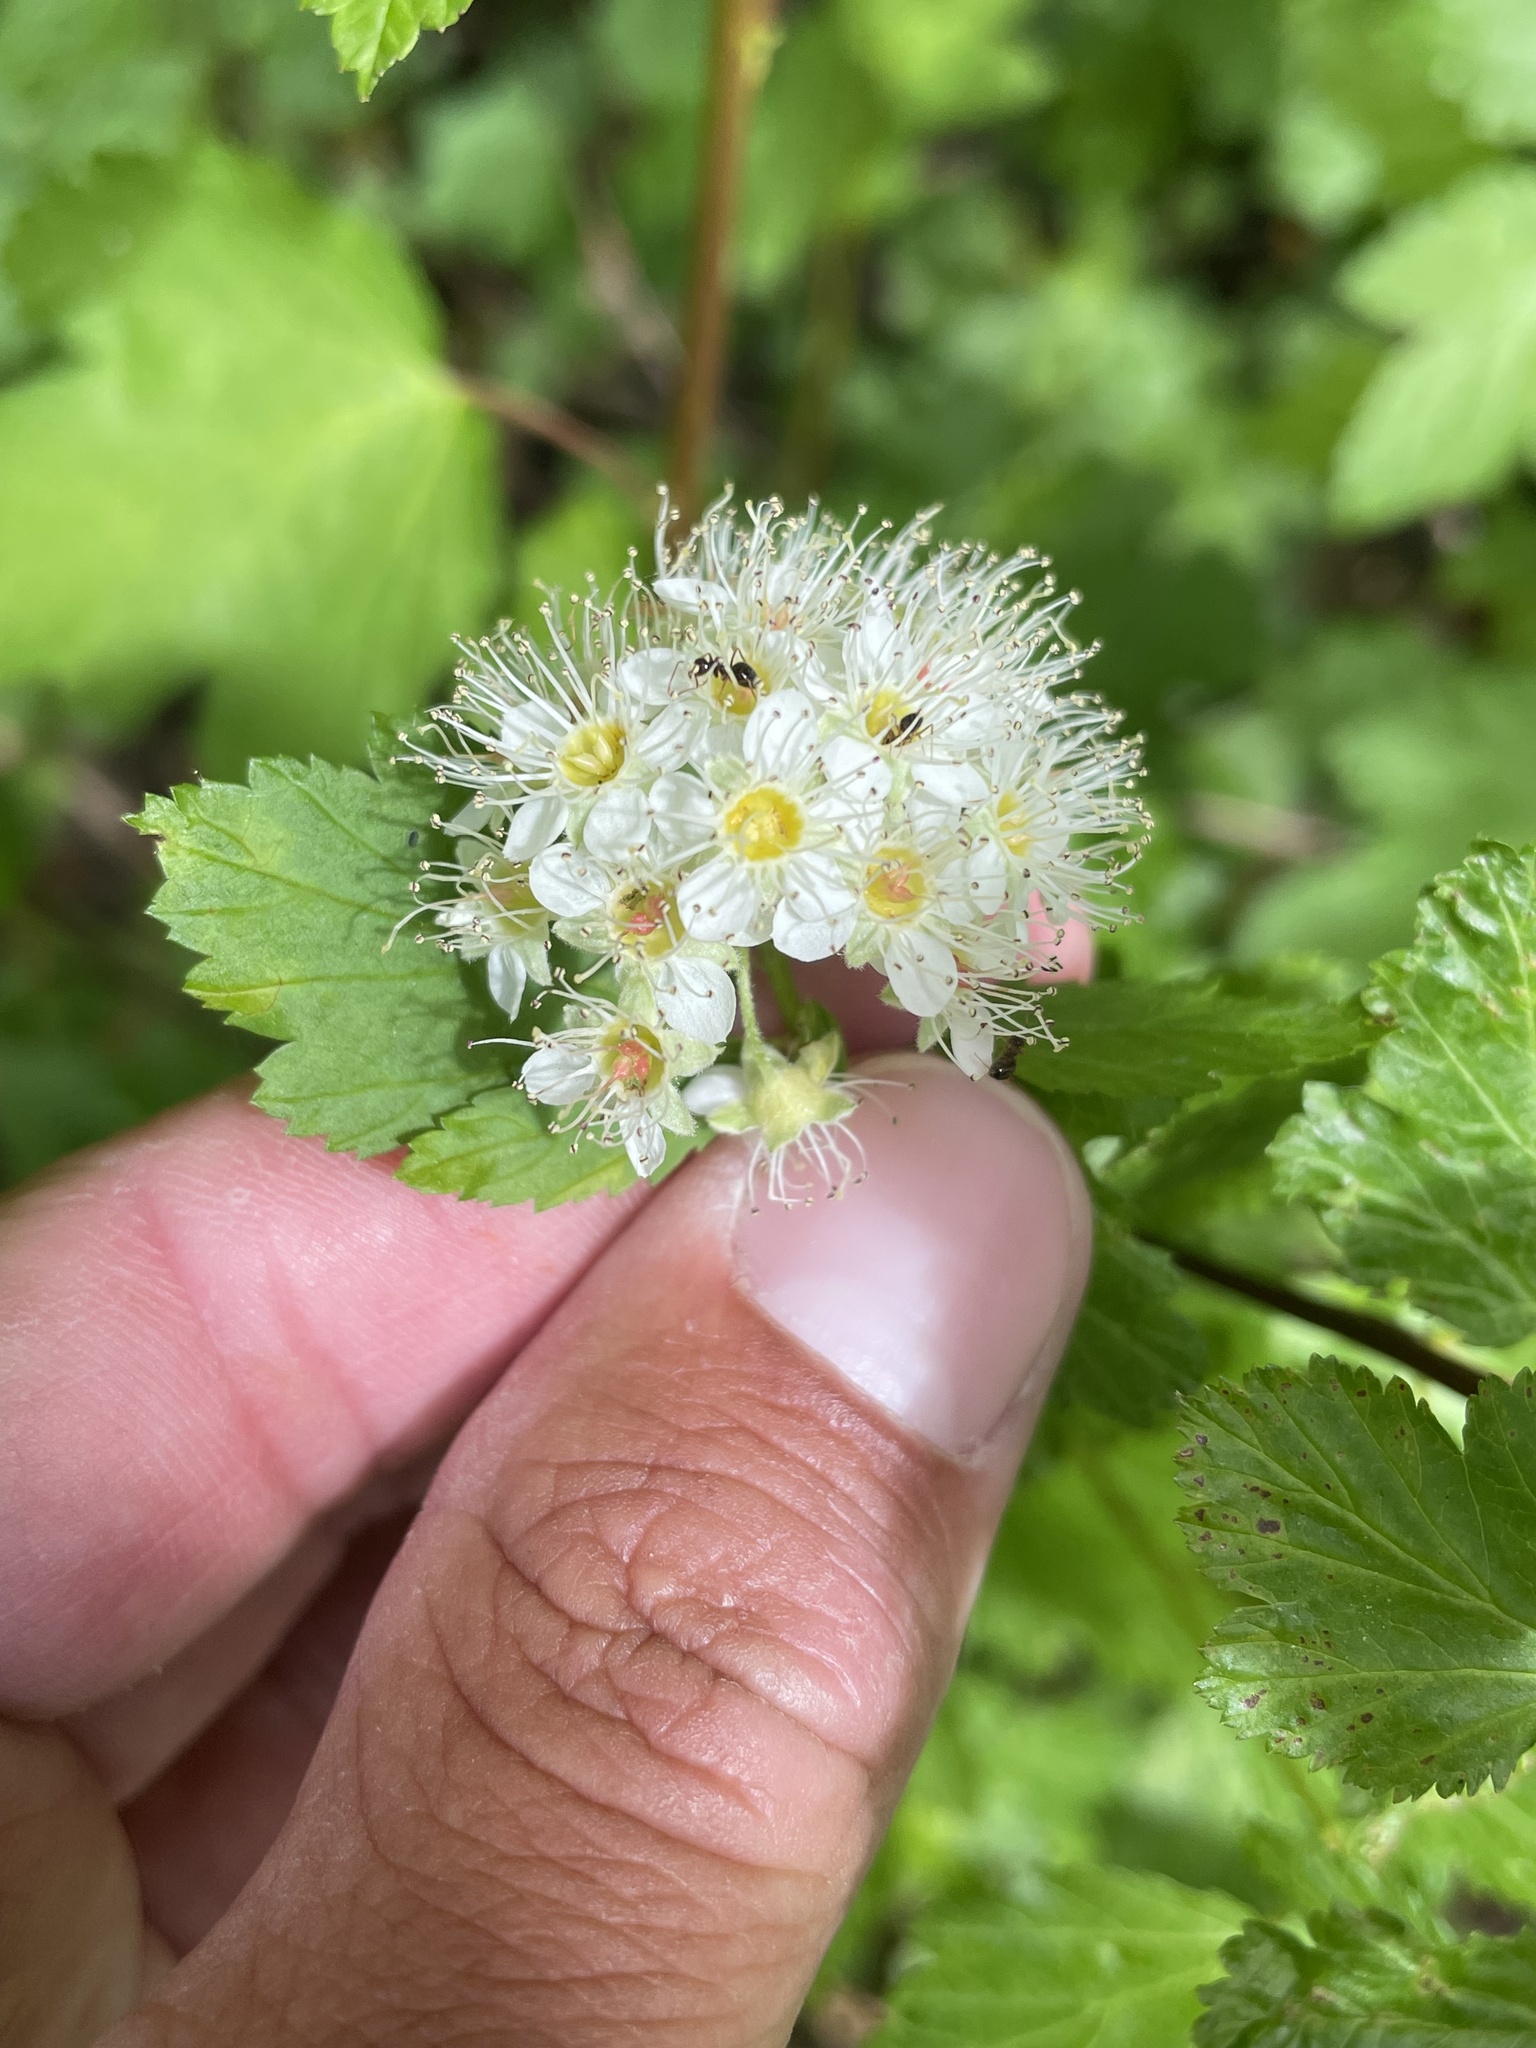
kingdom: Plantae
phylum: Tracheophyta
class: Magnoliopsida
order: Rosales
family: Rosaceae
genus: Physocarpus
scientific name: Physocarpus capitatus
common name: Pacific ninebark
